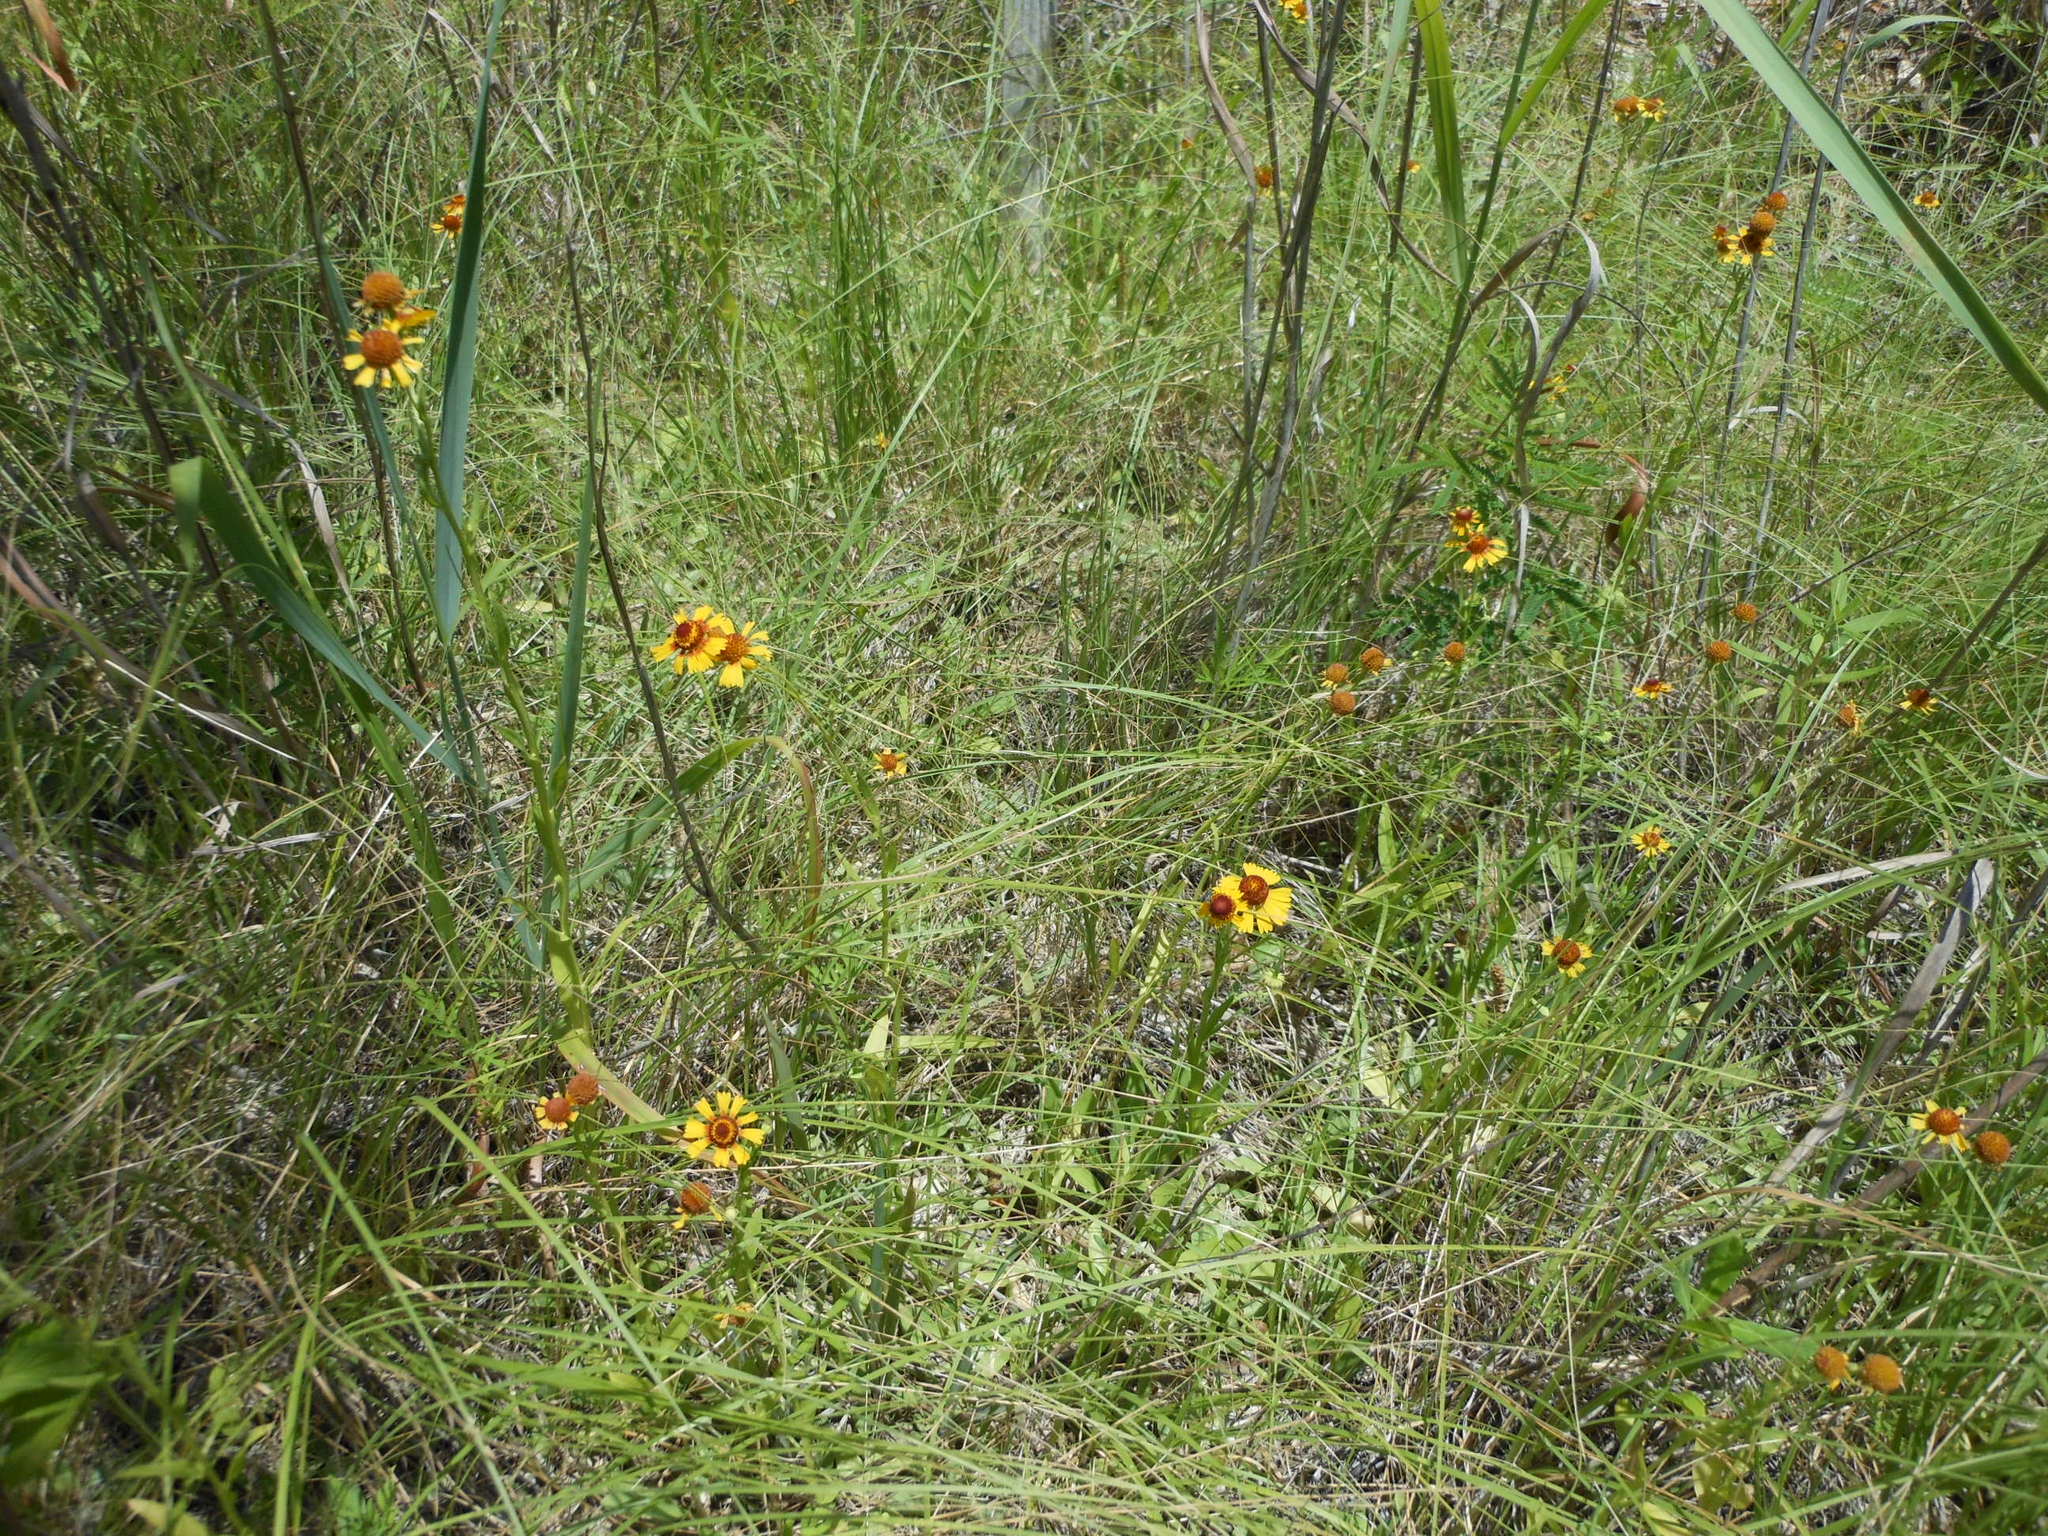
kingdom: Plantae
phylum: Tracheophyta
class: Magnoliopsida
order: Asterales
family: Asteraceae
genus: Helenium
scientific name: Helenium elegans
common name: Pretty sneezeweed
